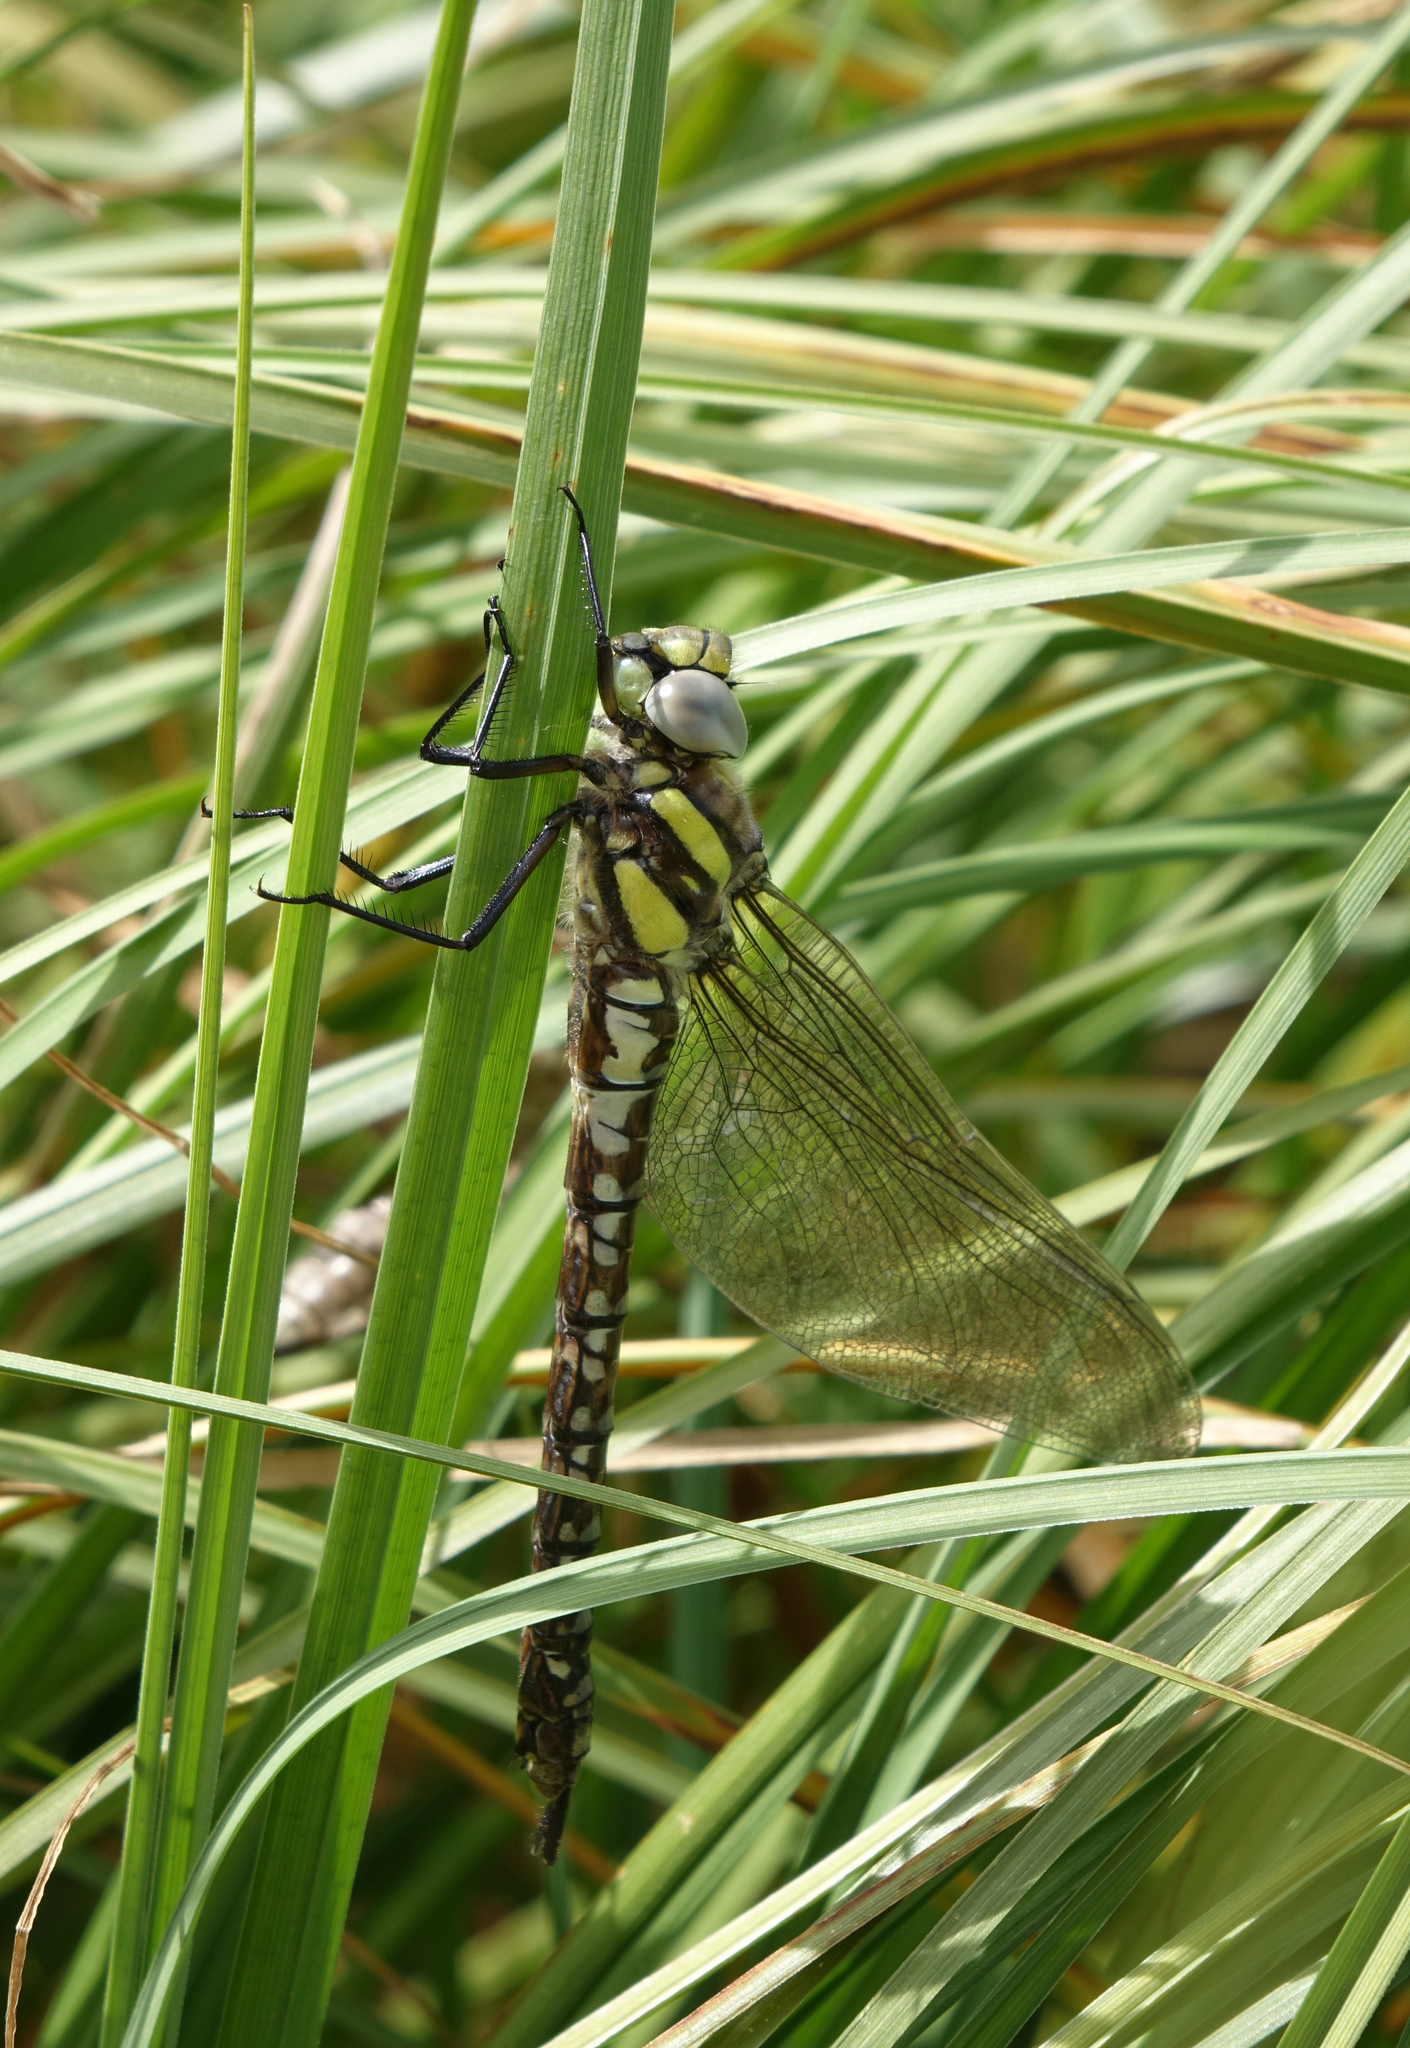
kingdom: Animalia
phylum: Arthropoda
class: Insecta
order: Odonata
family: Aeshnidae
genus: Aeshna
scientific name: Aeshna juncea
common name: Moorland hawker
